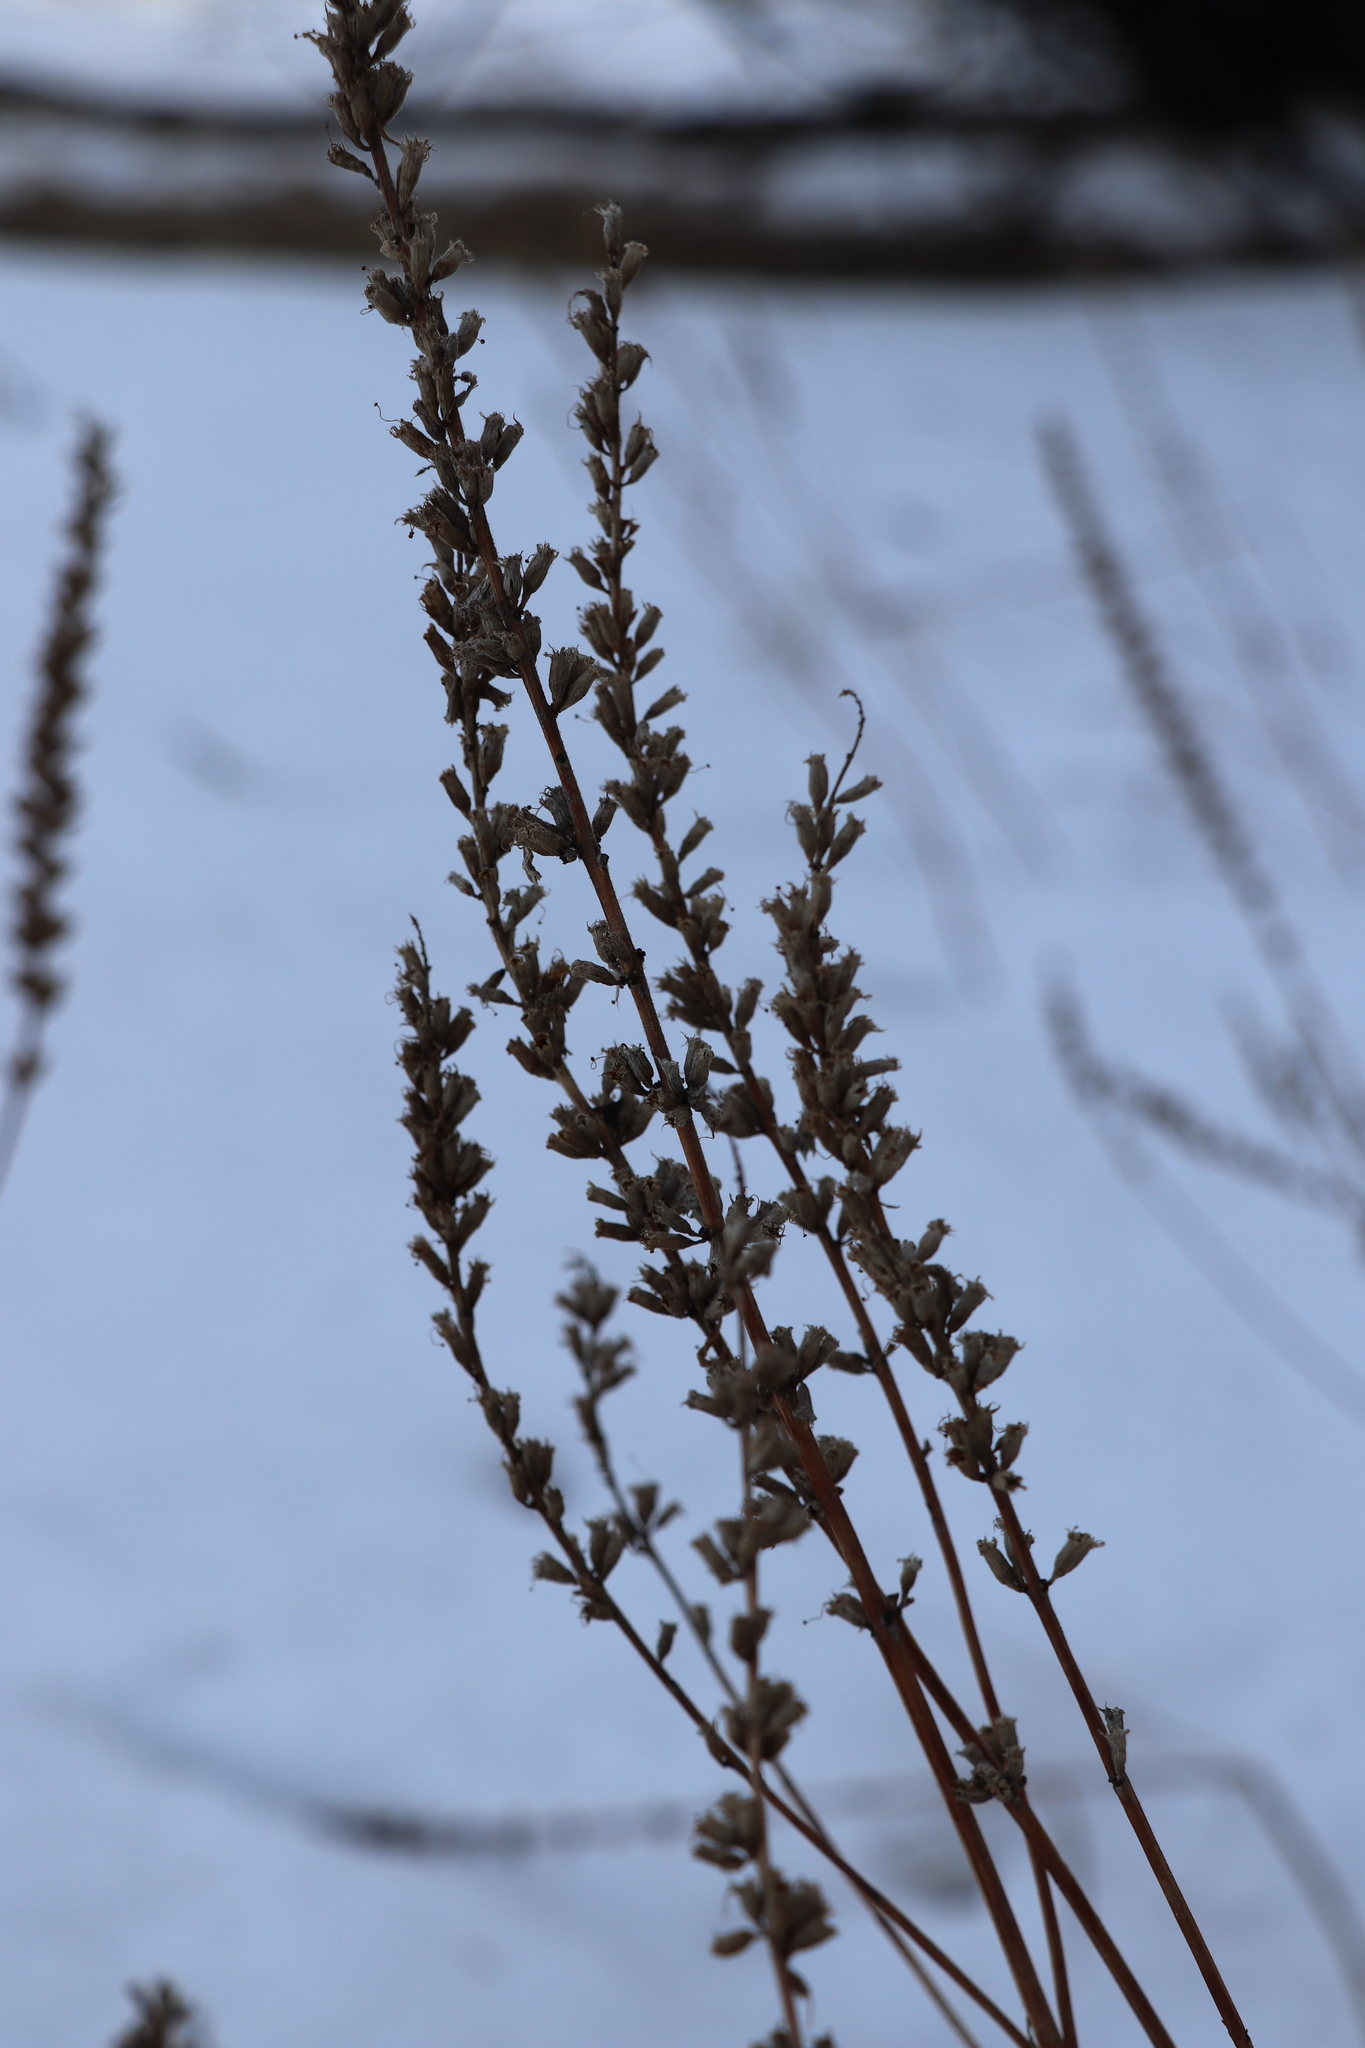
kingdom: Plantae
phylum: Tracheophyta
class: Magnoliopsida
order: Myrtales
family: Lythraceae
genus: Lythrum
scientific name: Lythrum salicaria
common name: Purple loosestrife
